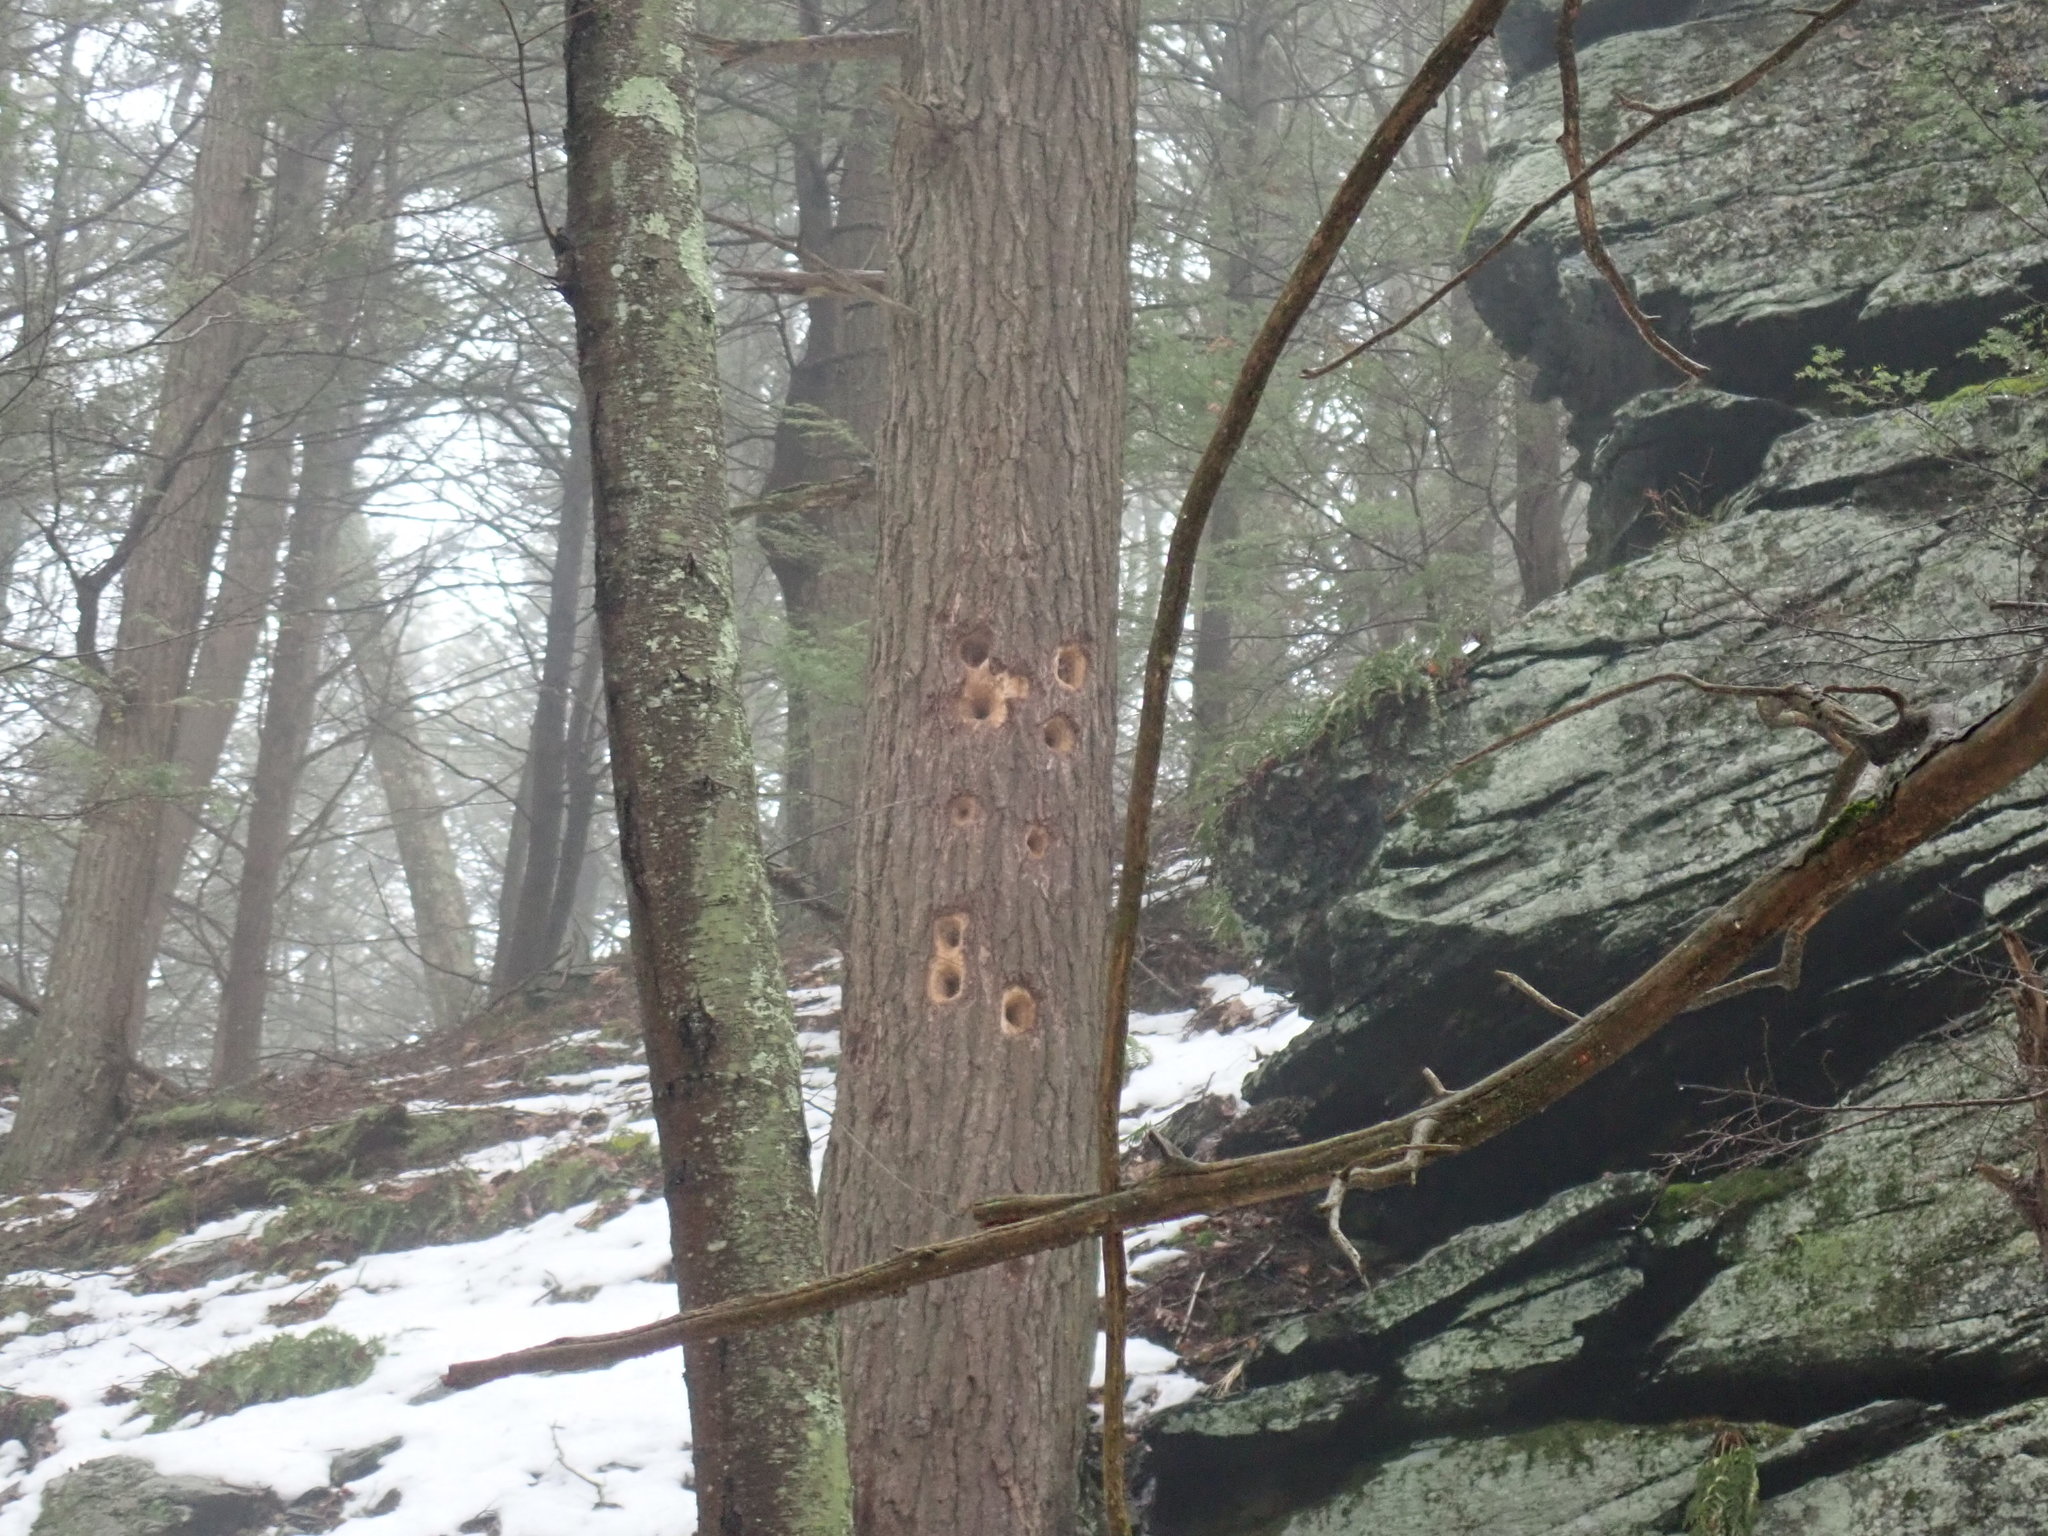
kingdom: Animalia
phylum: Chordata
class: Aves
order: Piciformes
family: Picidae
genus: Dryocopus
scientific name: Dryocopus pileatus
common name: Pileated woodpecker
